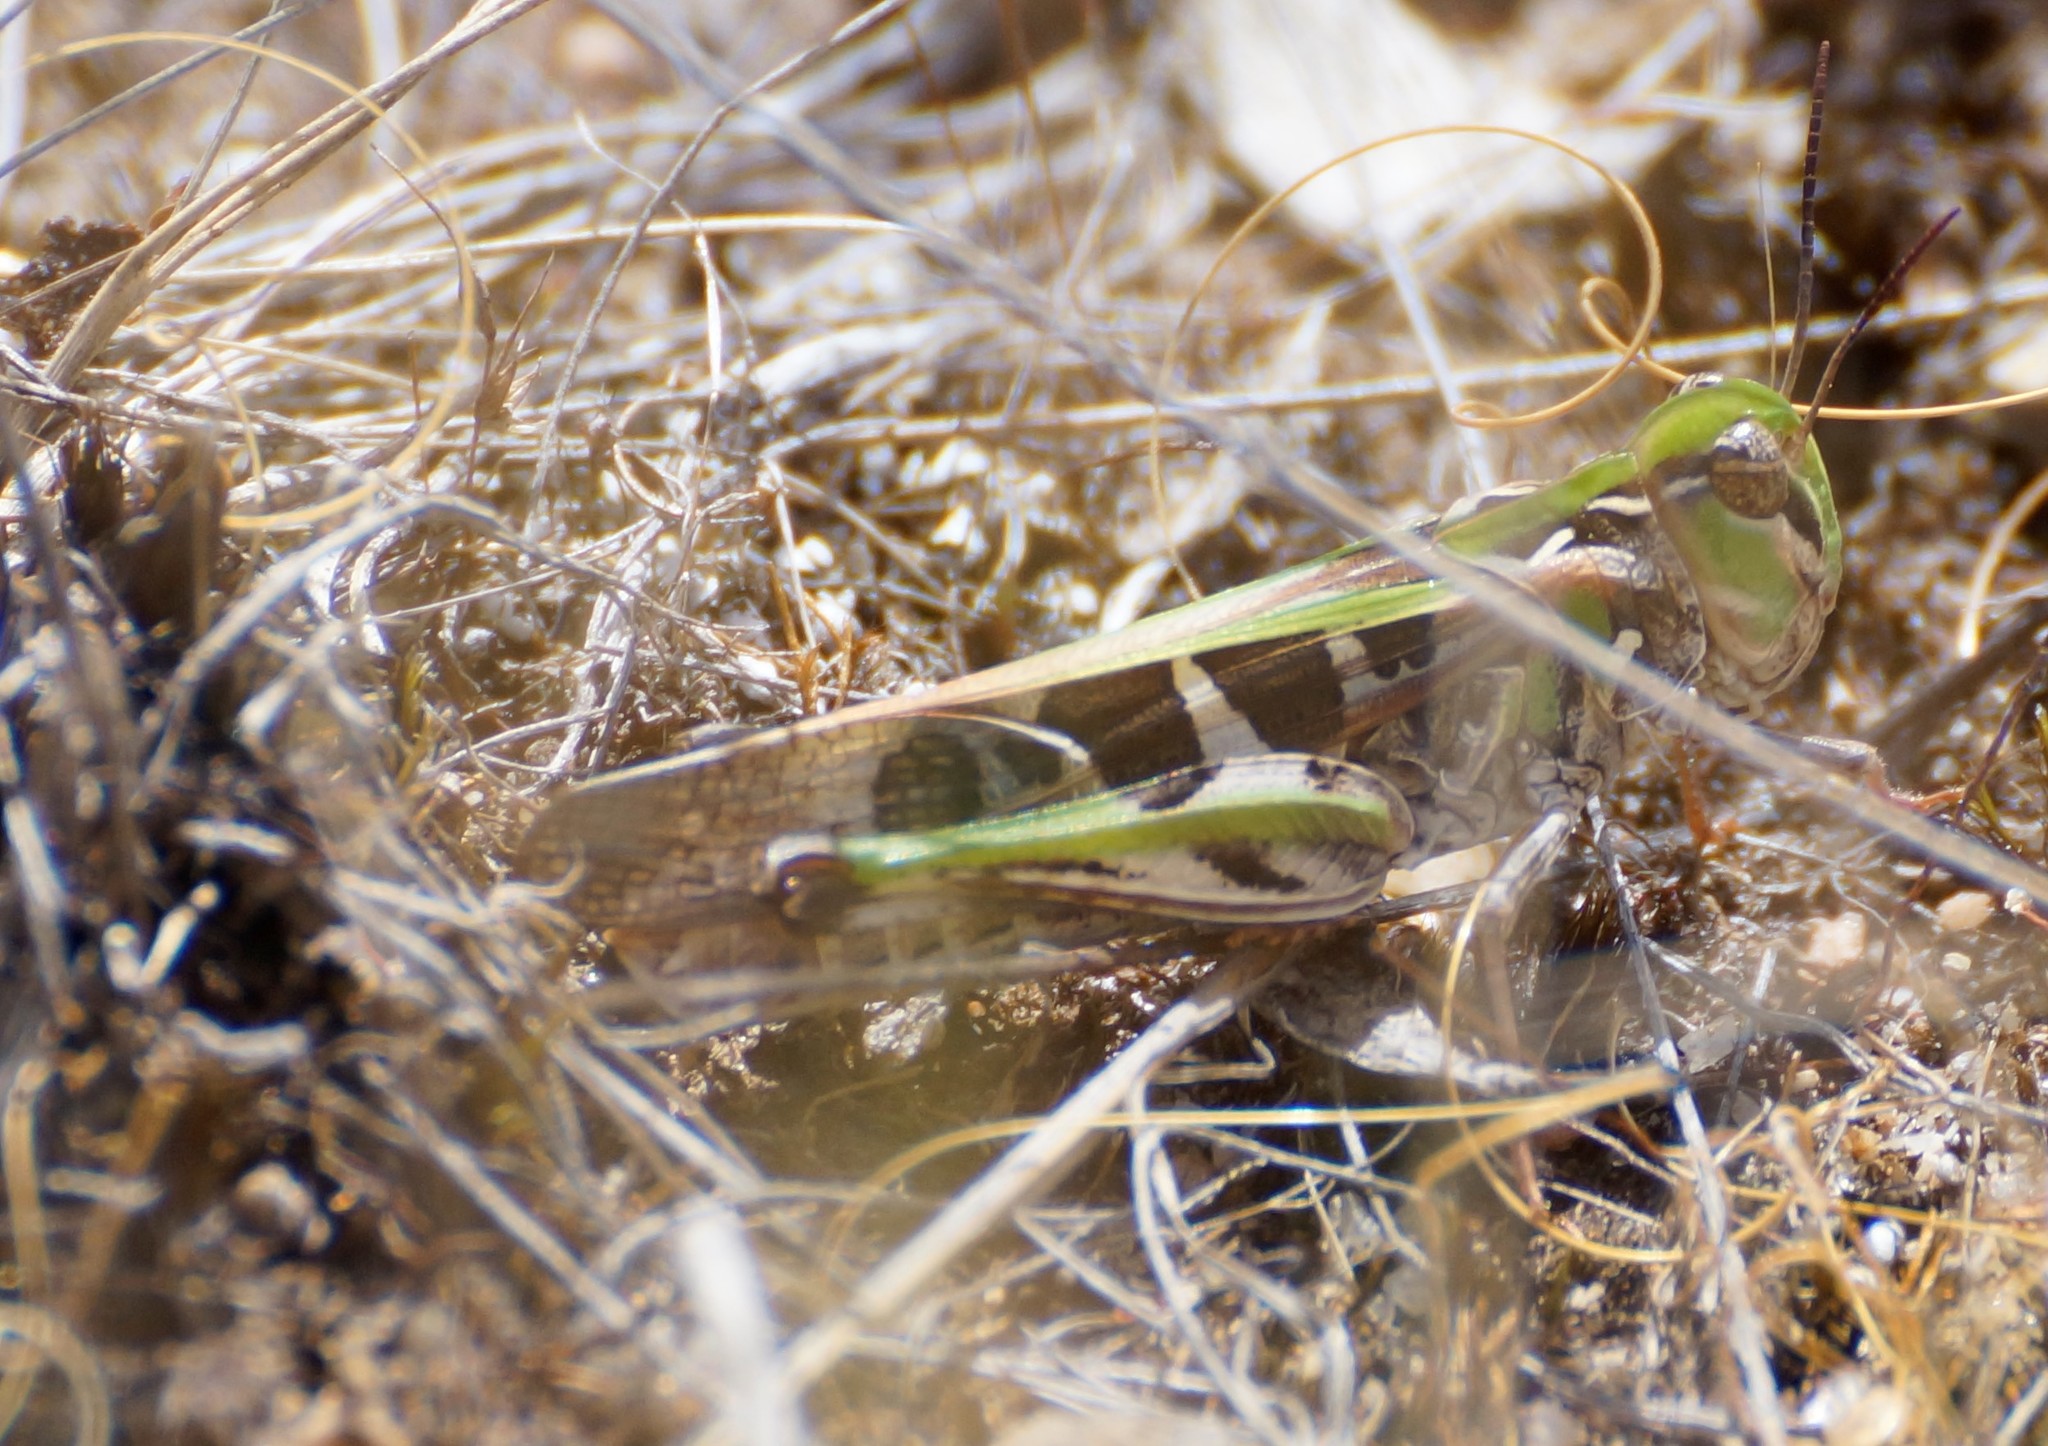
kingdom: Animalia
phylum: Arthropoda
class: Insecta
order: Orthoptera
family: Acrididae
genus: Oedaleus
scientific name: Oedaleus australis
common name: Eastern oedaleus
